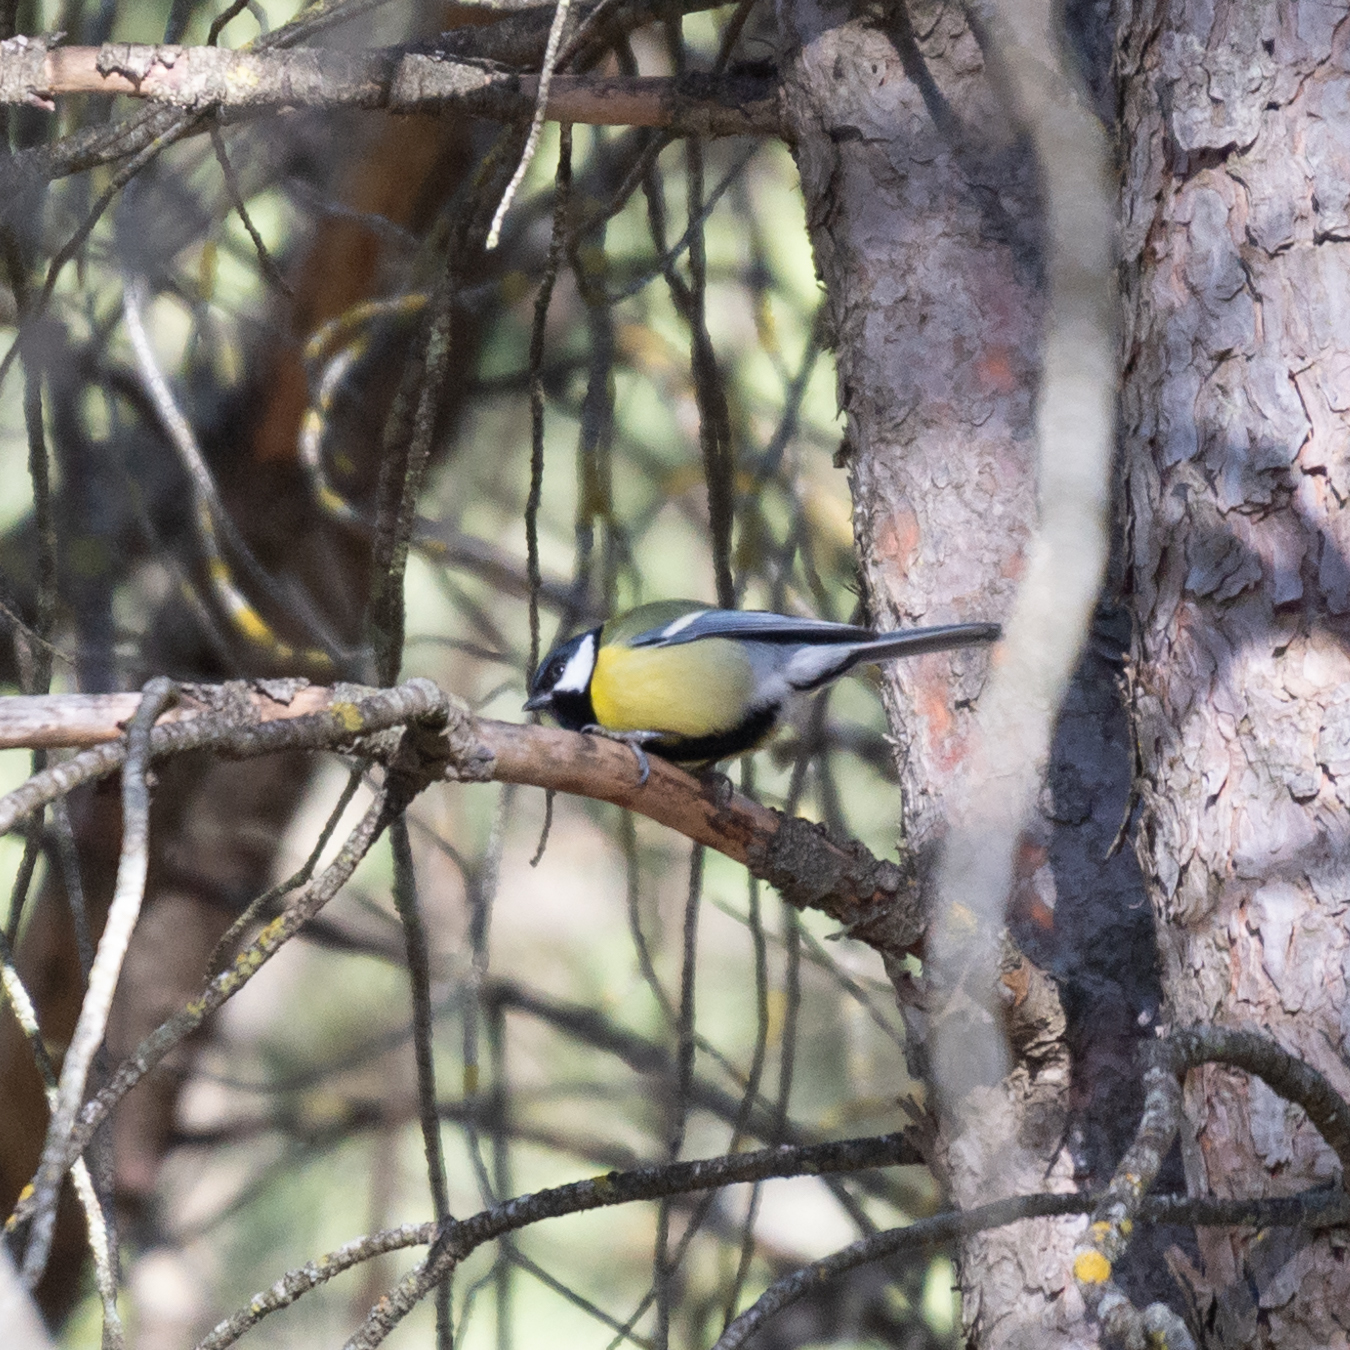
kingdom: Animalia
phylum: Chordata
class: Aves
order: Passeriformes
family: Paridae
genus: Parus
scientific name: Parus major
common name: Great tit
